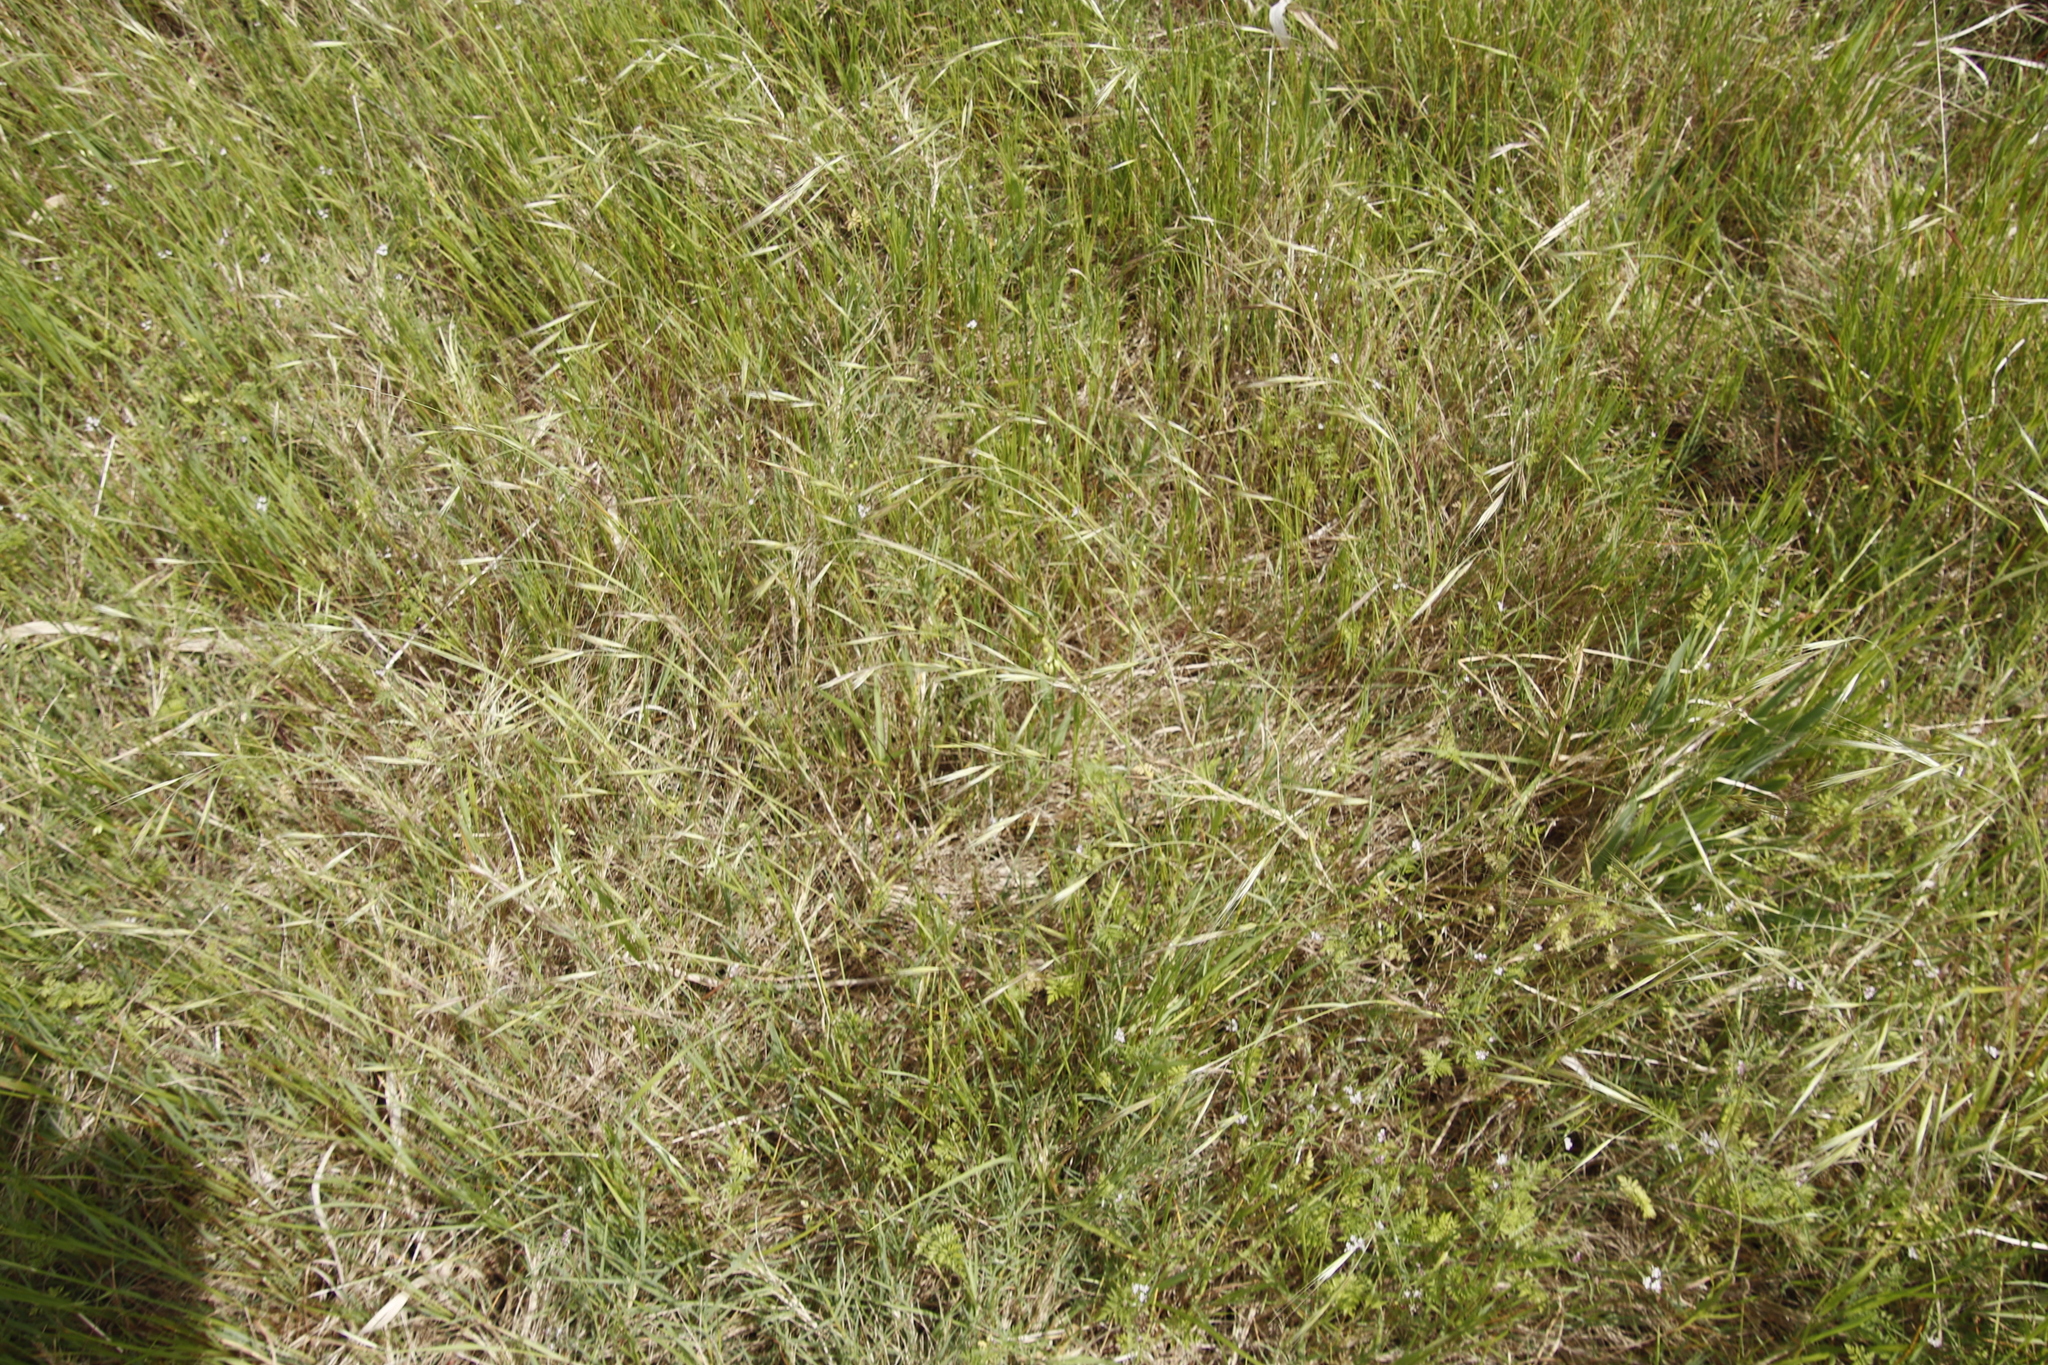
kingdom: Plantae
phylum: Tracheophyta
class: Liliopsida
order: Poales
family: Poaceae
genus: Avena
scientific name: Avena fatua
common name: Wild oat
